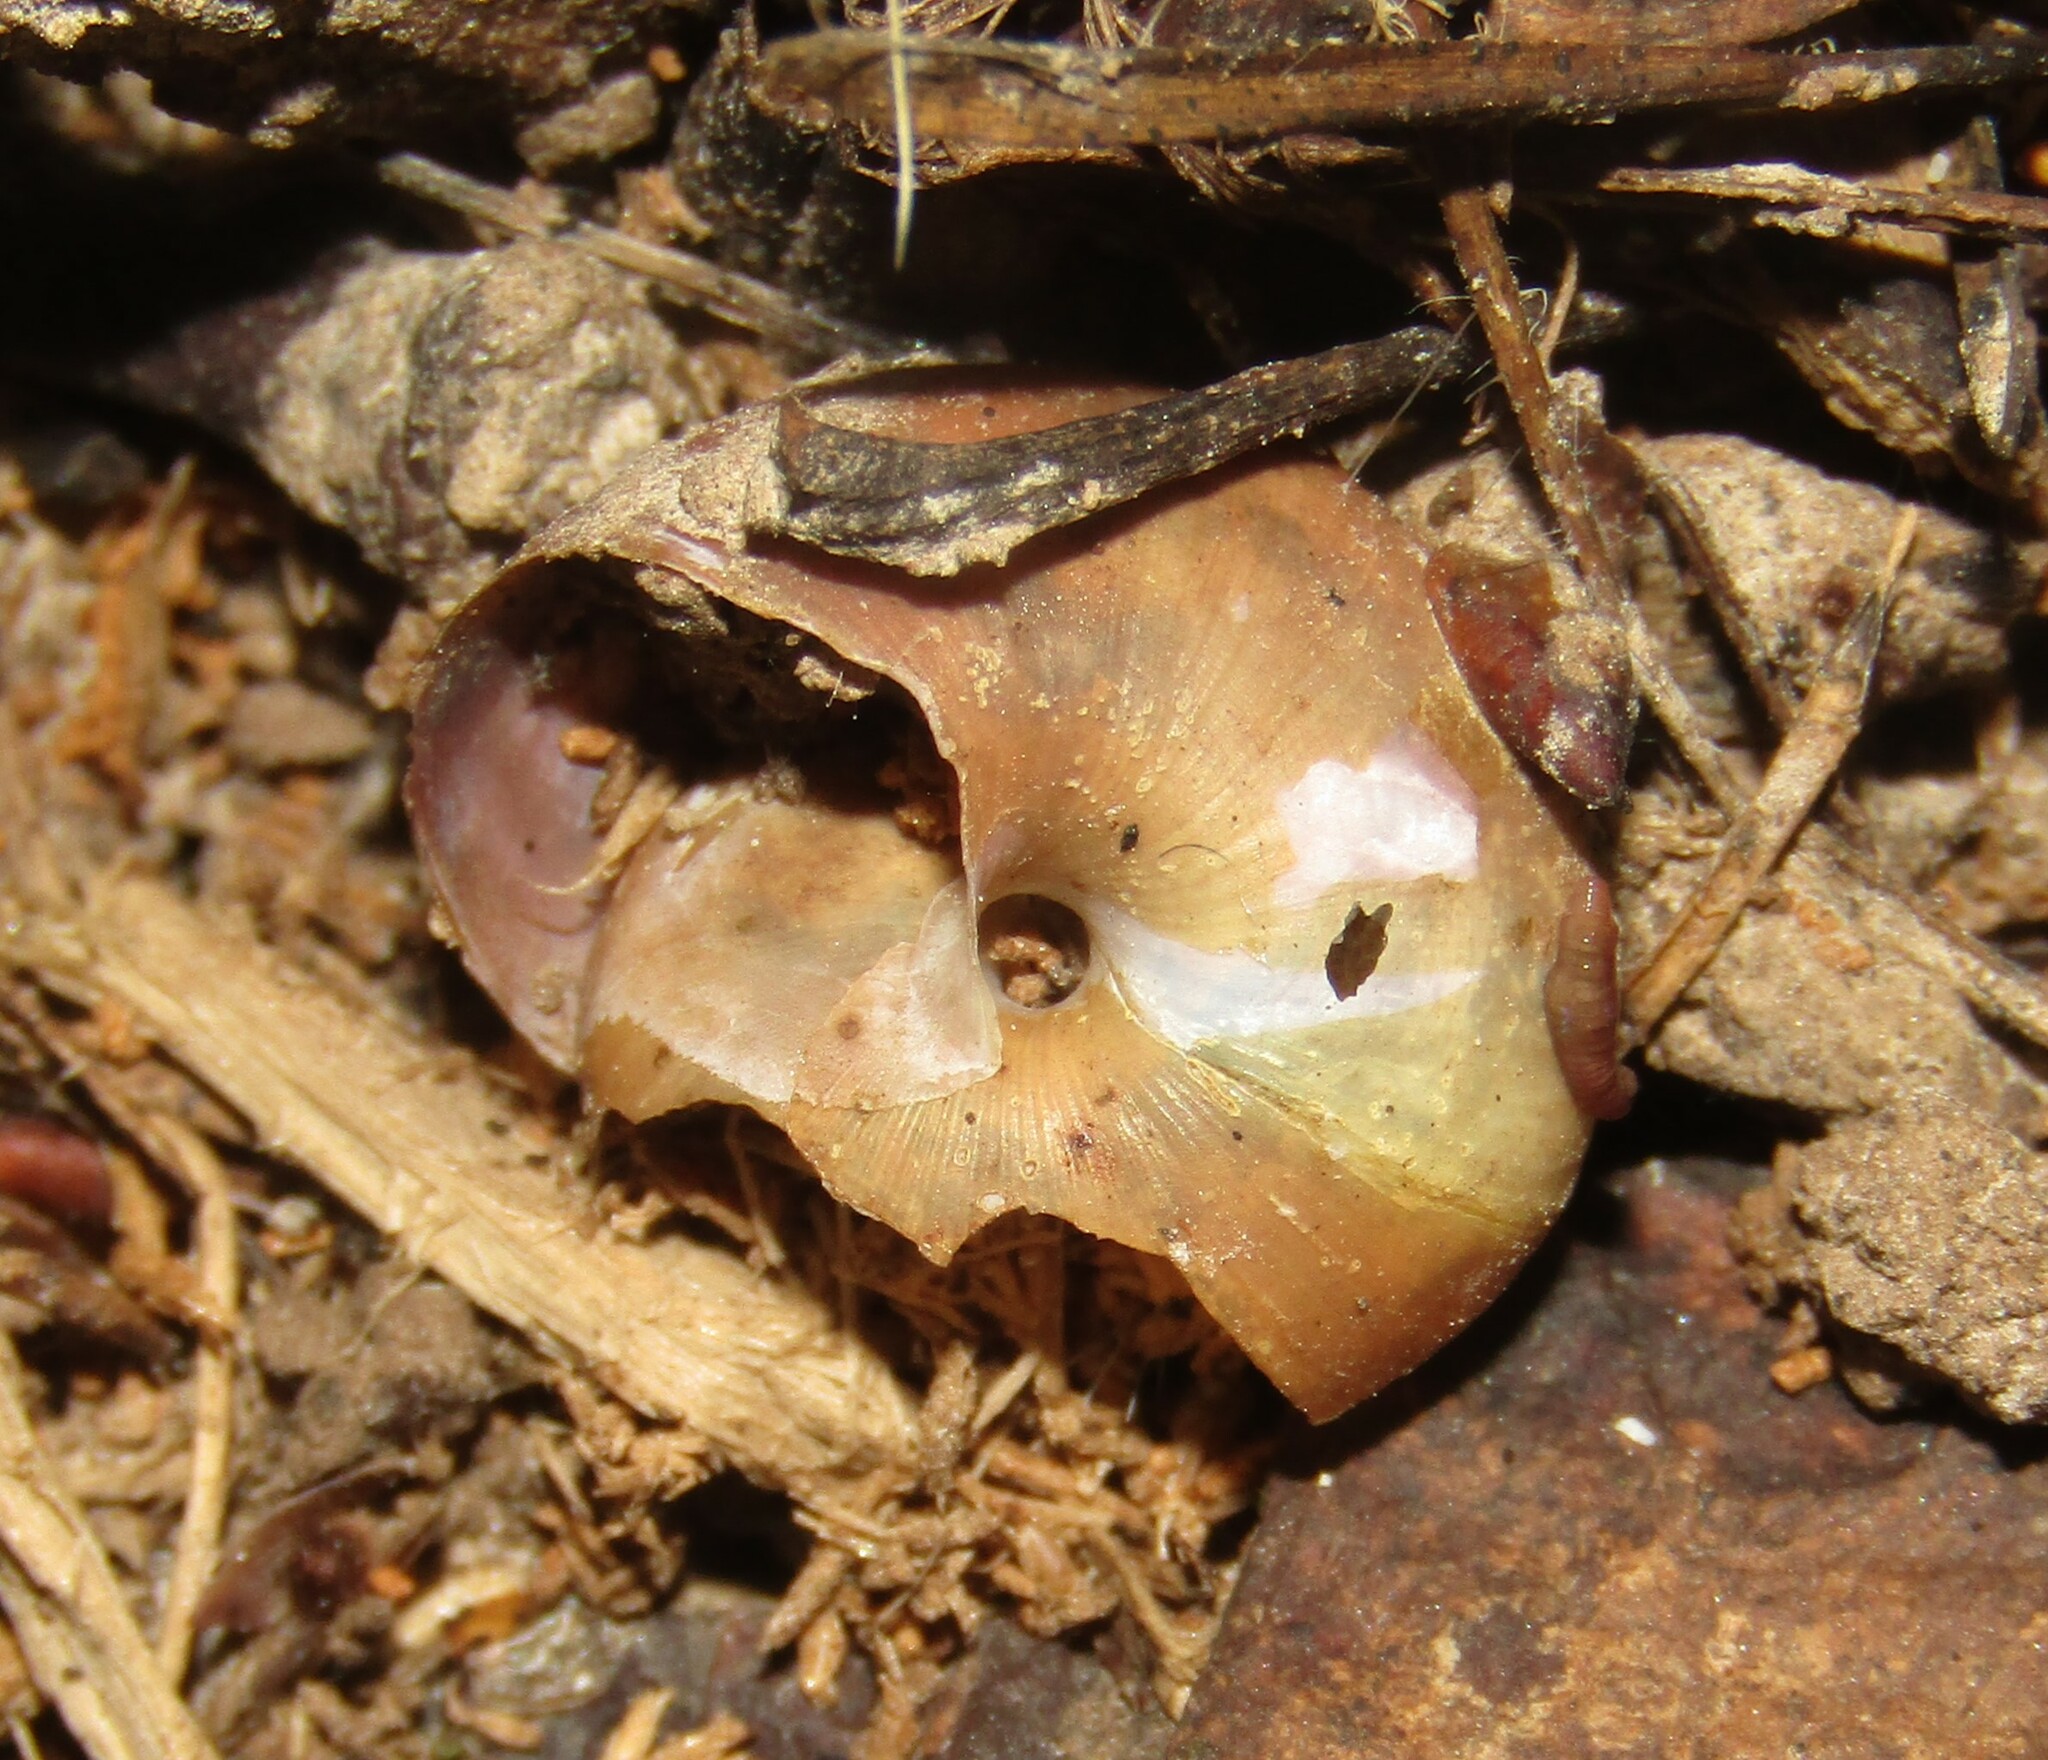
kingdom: Animalia
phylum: Mollusca
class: Gastropoda
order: Stylommatophora
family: Camaenidae
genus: Fruticicola
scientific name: Fruticicola fruticum
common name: Bush snail
